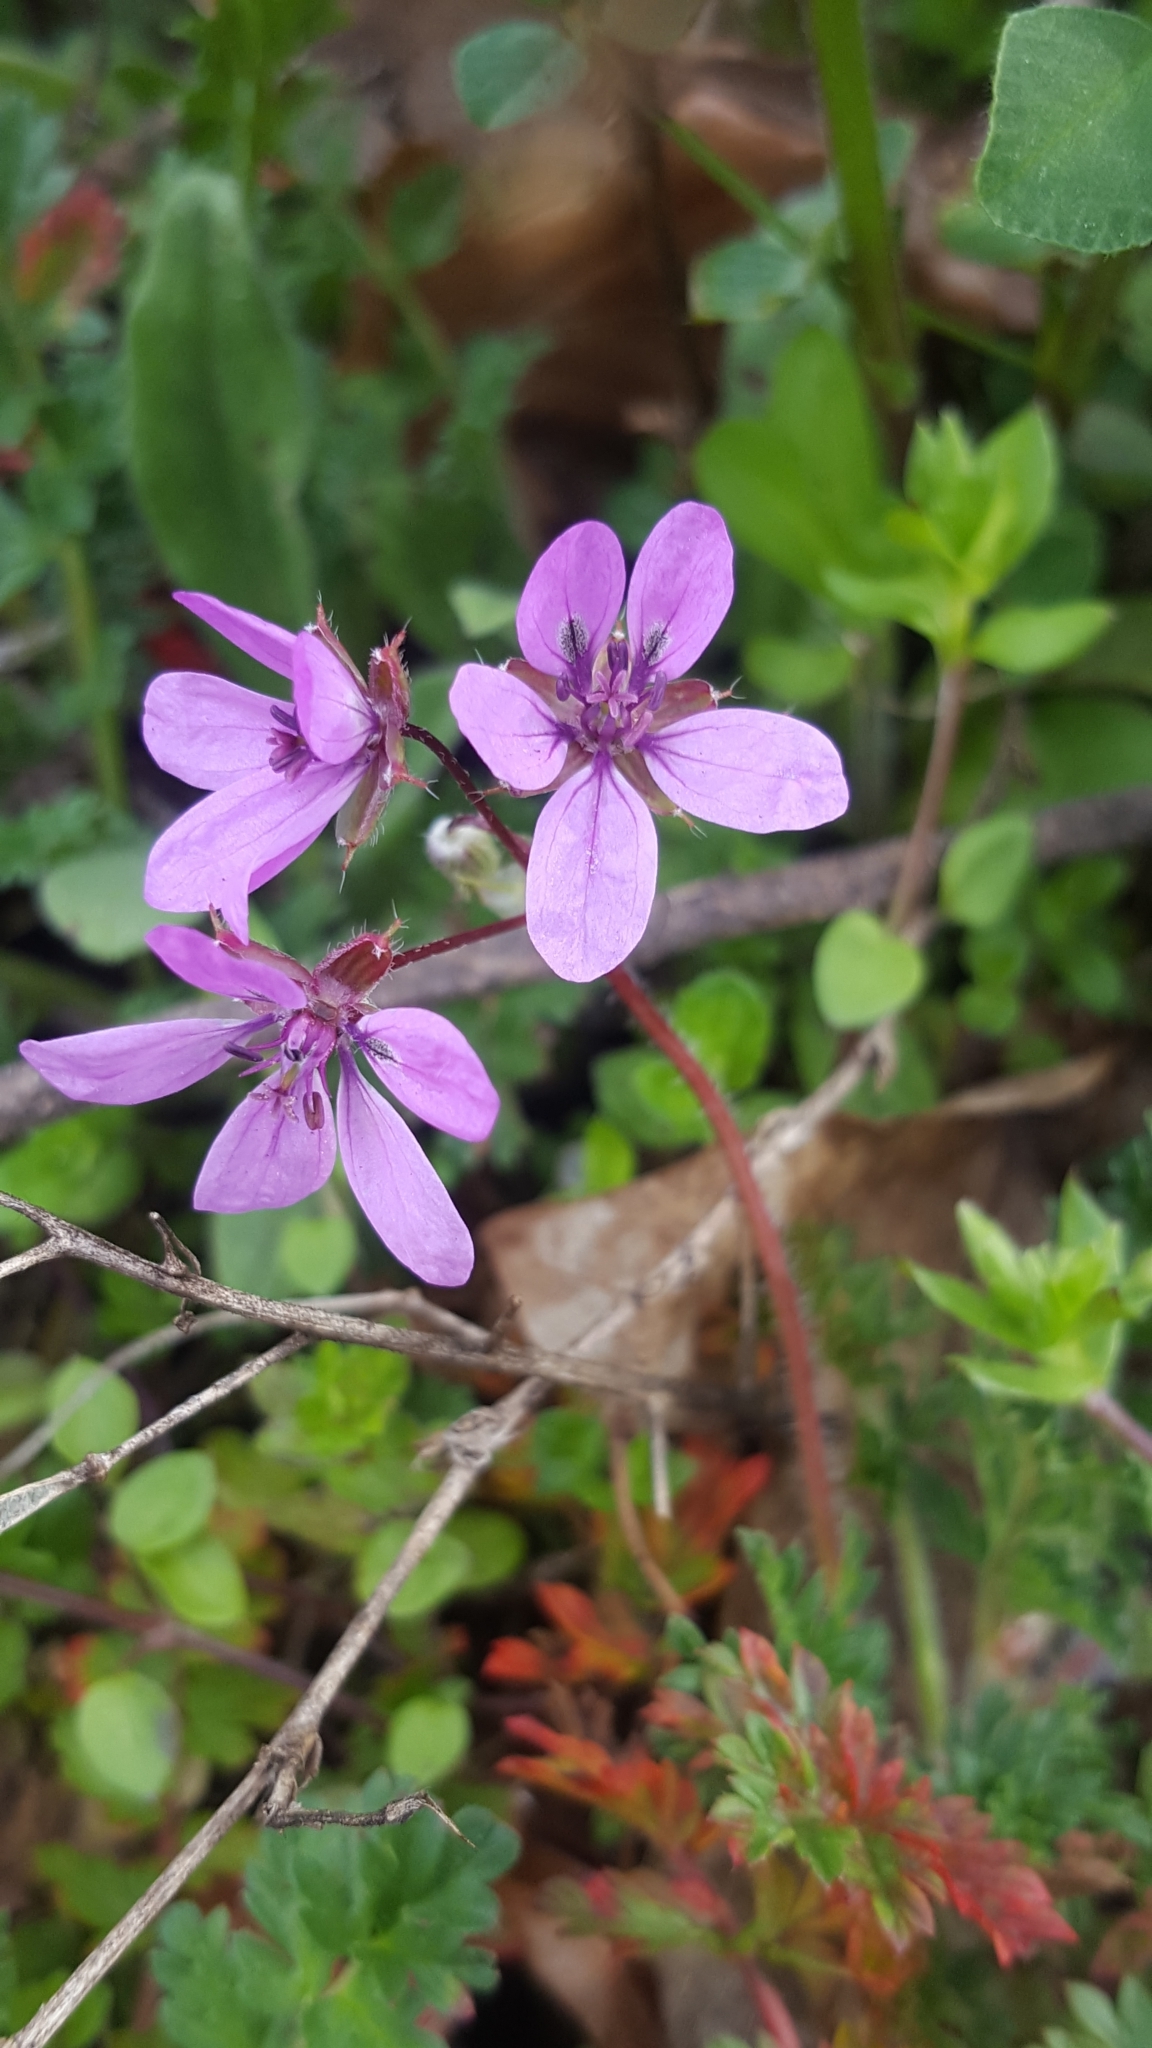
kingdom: Plantae
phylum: Tracheophyta
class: Magnoliopsida
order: Geraniales
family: Geraniaceae
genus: Erodium
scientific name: Erodium cicutarium
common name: Common stork's-bill
